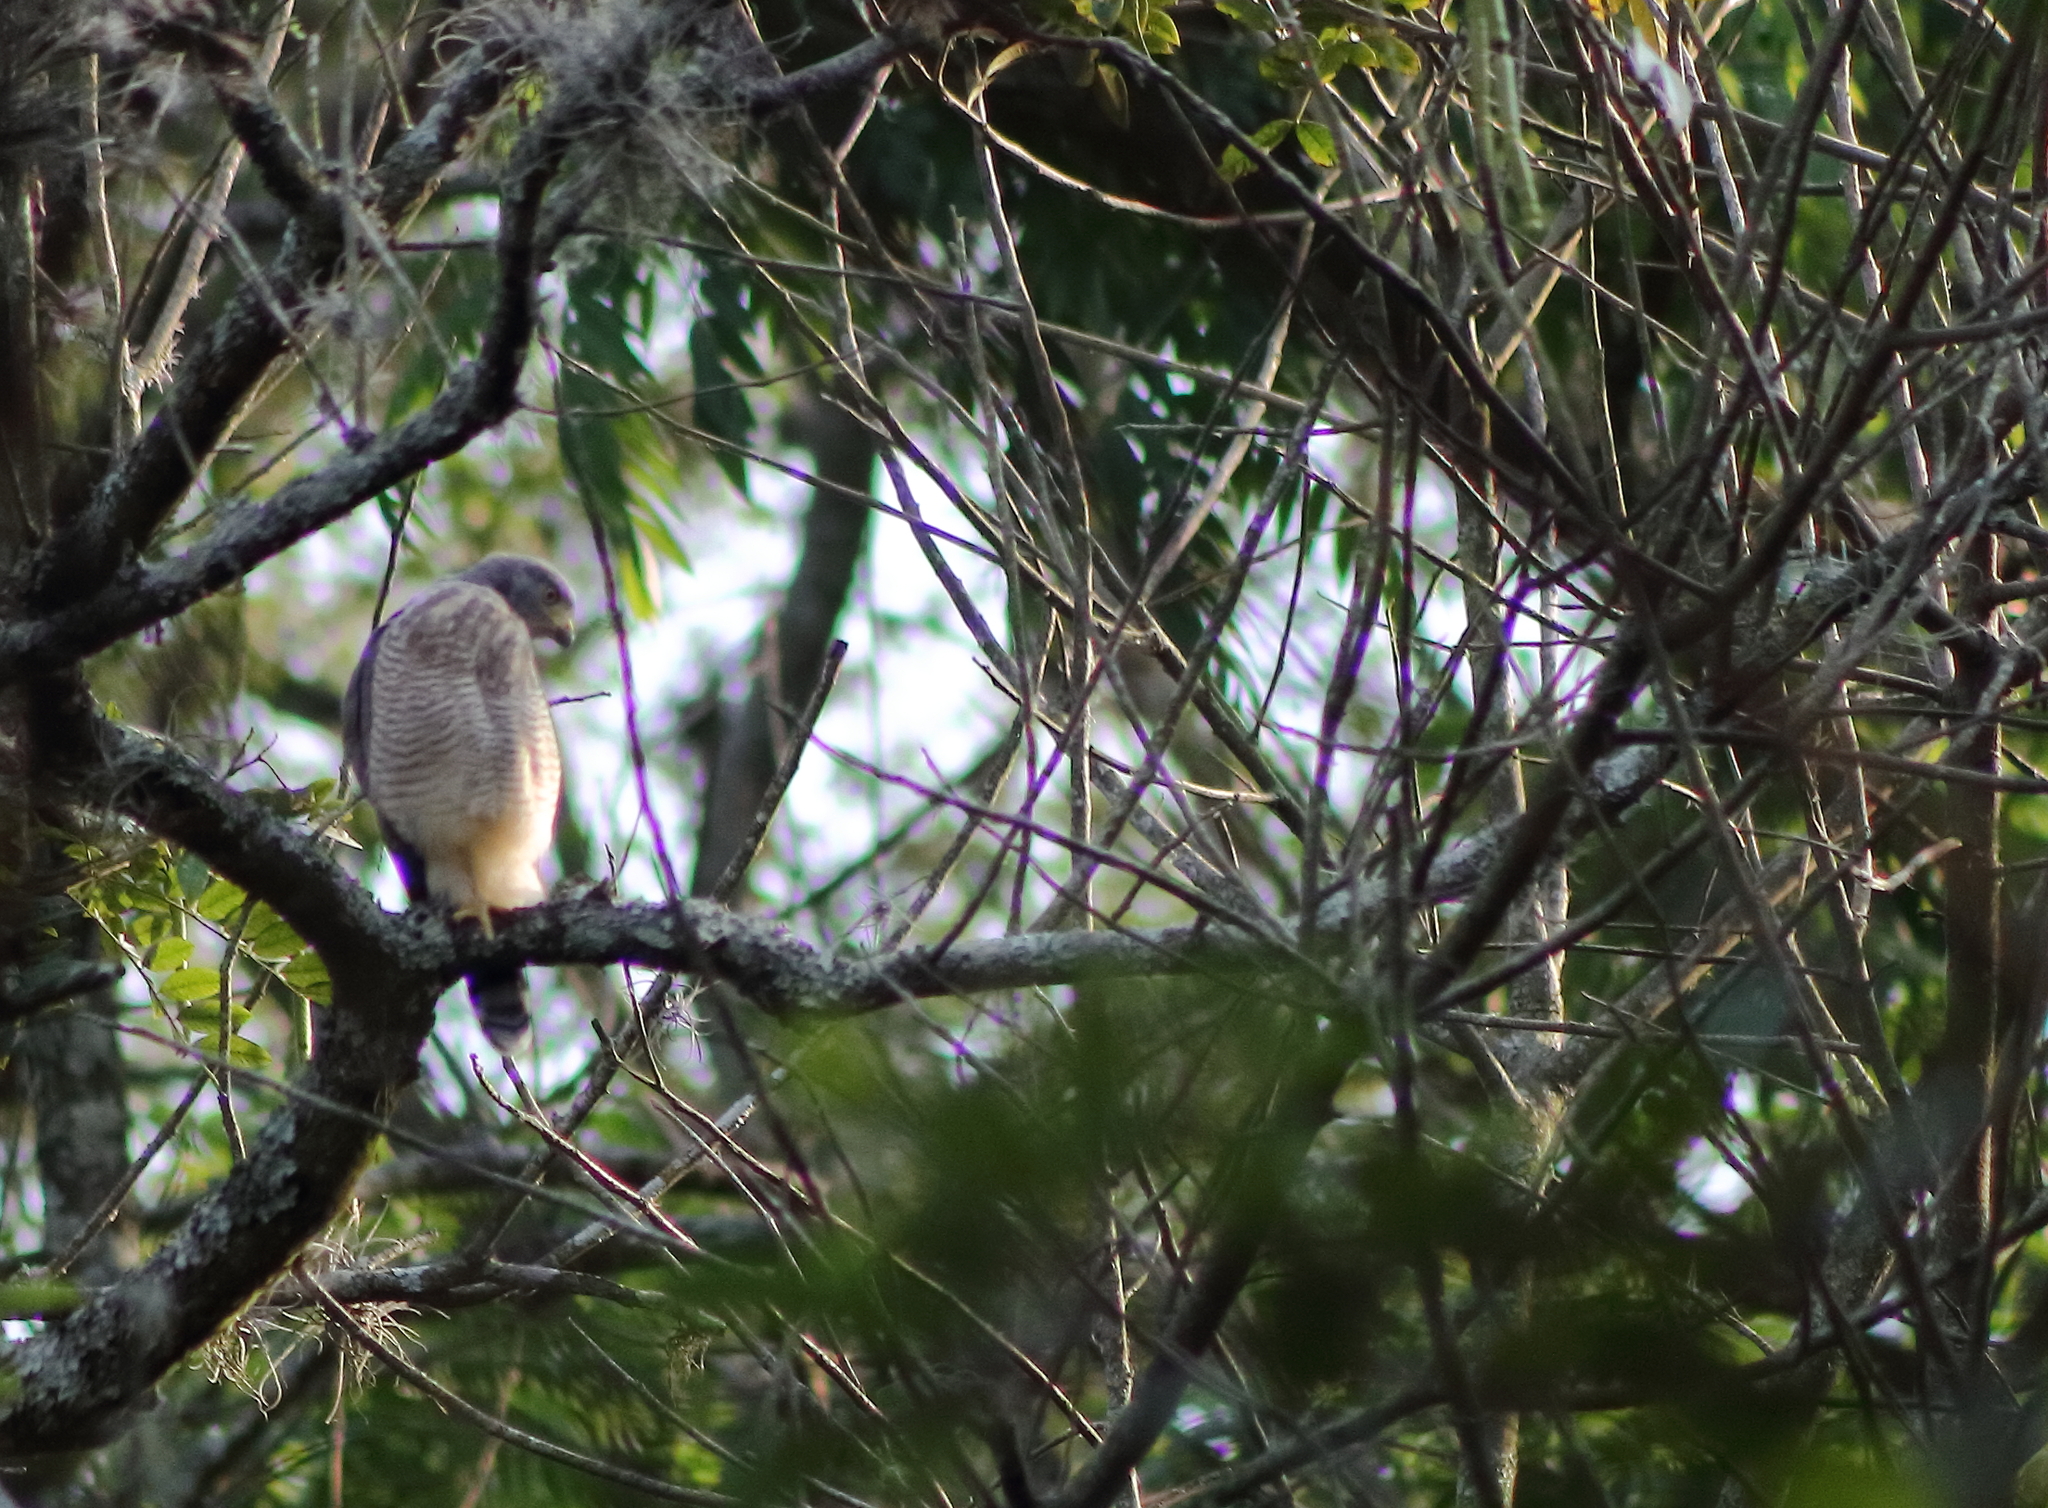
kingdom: Animalia
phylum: Chordata
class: Aves
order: Accipitriformes
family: Accipitridae
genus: Rupornis
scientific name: Rupornis magnirostris
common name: Roadside hawk
